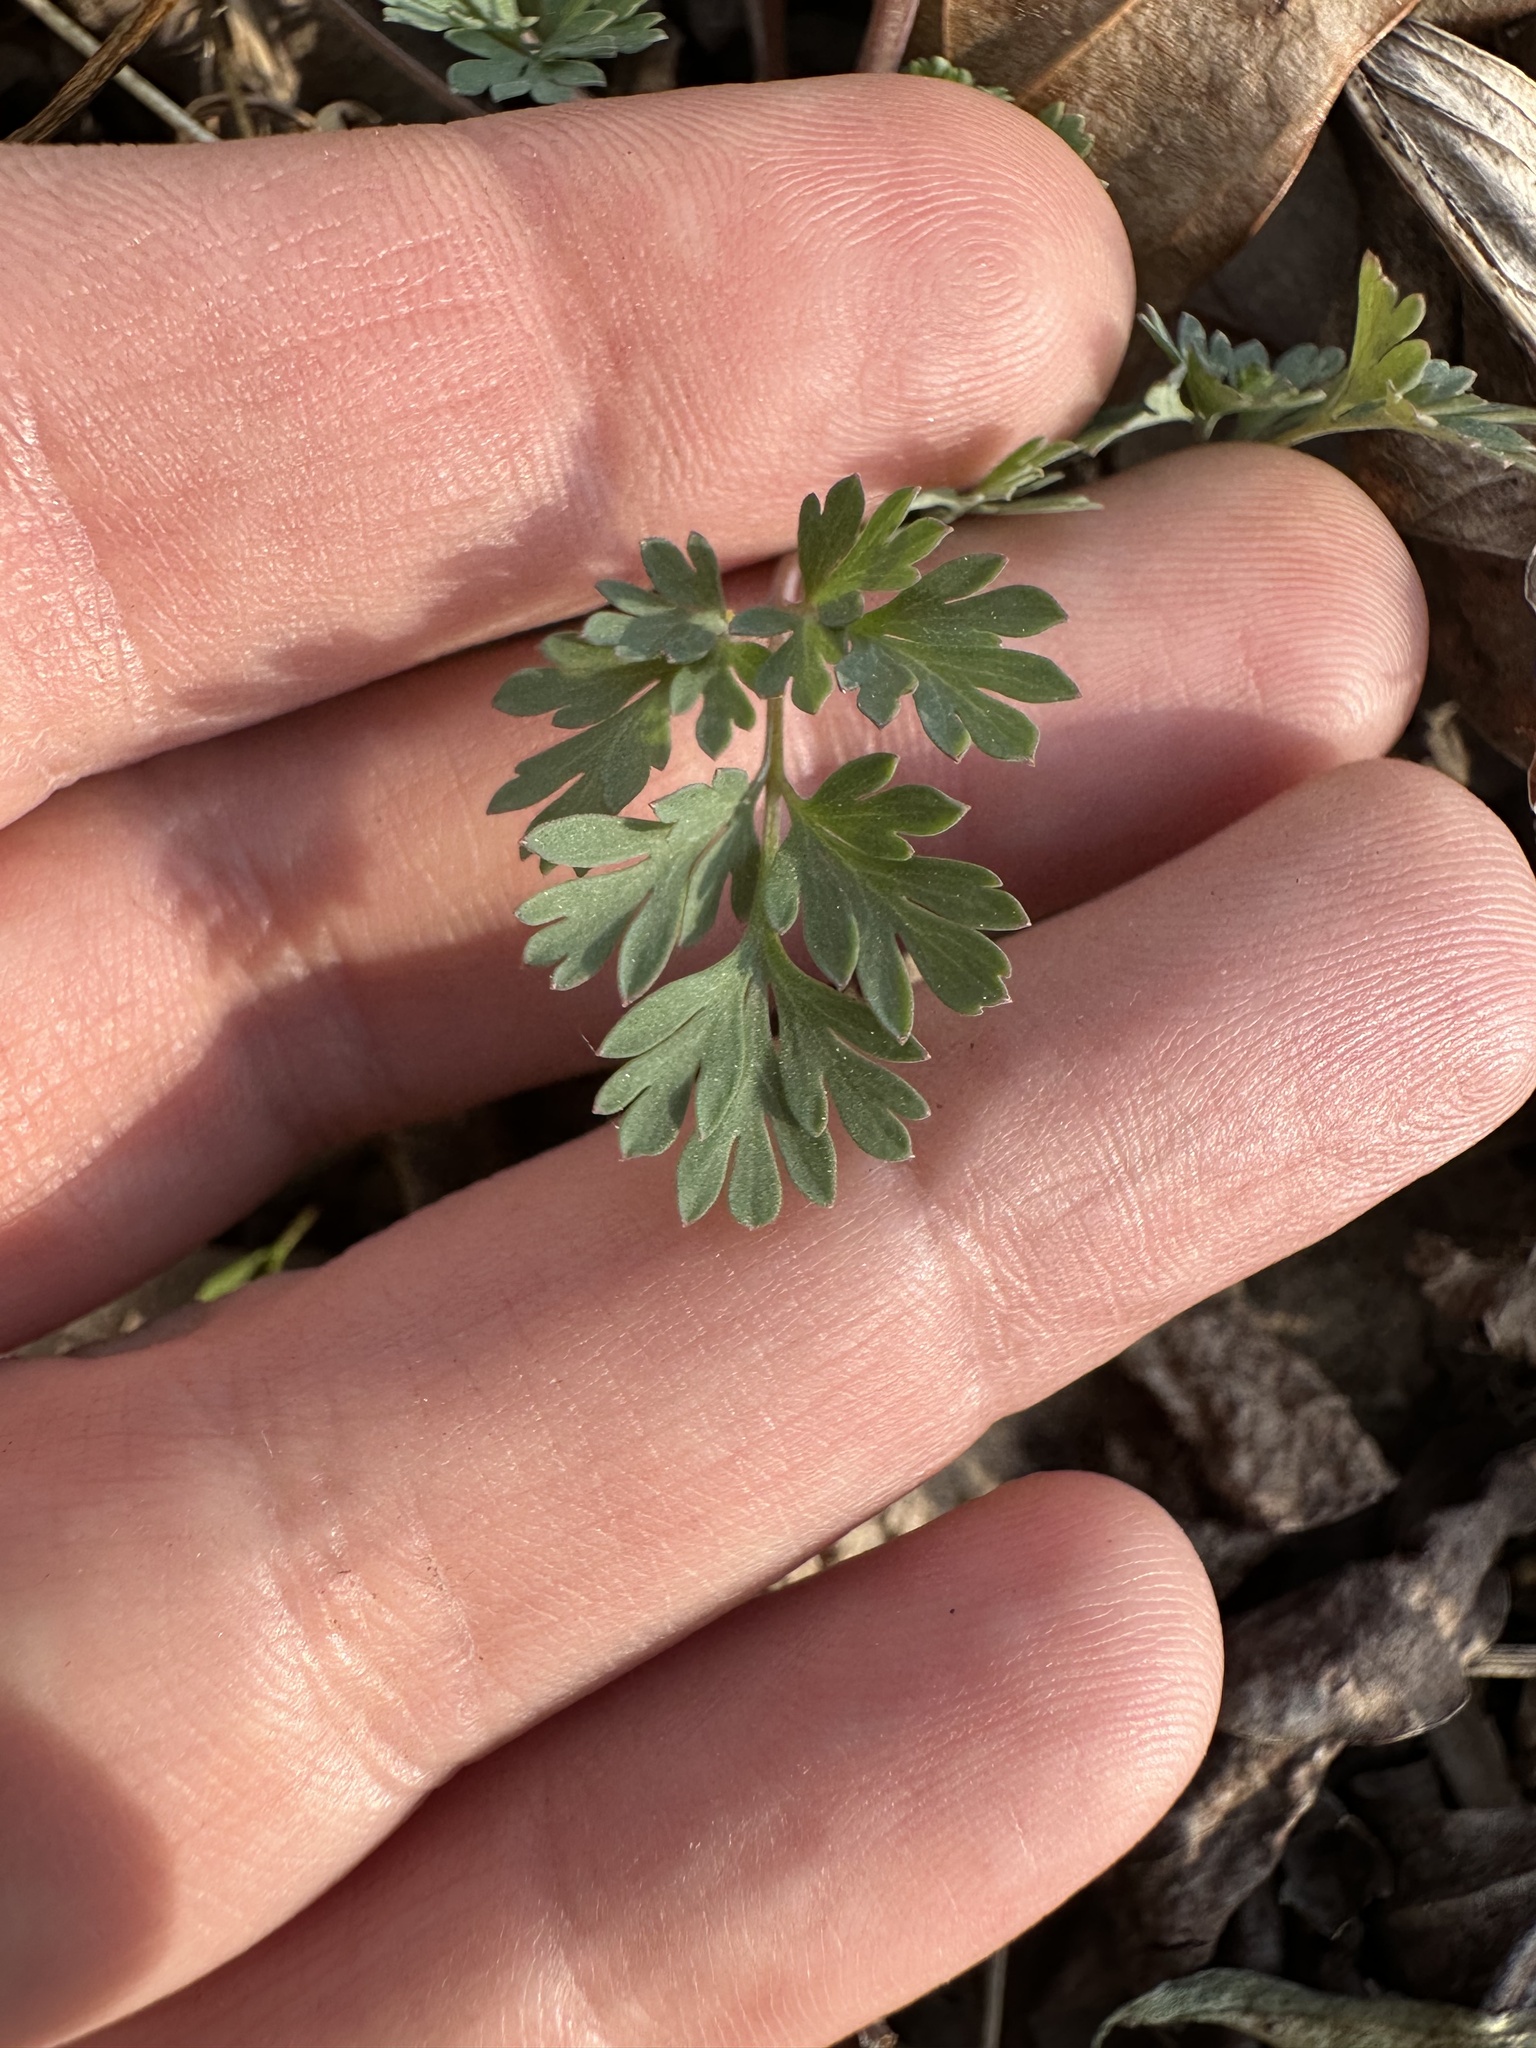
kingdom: Plantae
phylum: Tracheophyta
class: Magnoliopsida
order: Ranunculales
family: Papaveraceae
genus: Corydalis
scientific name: Corydalis flavula
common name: Yellow corydalis
